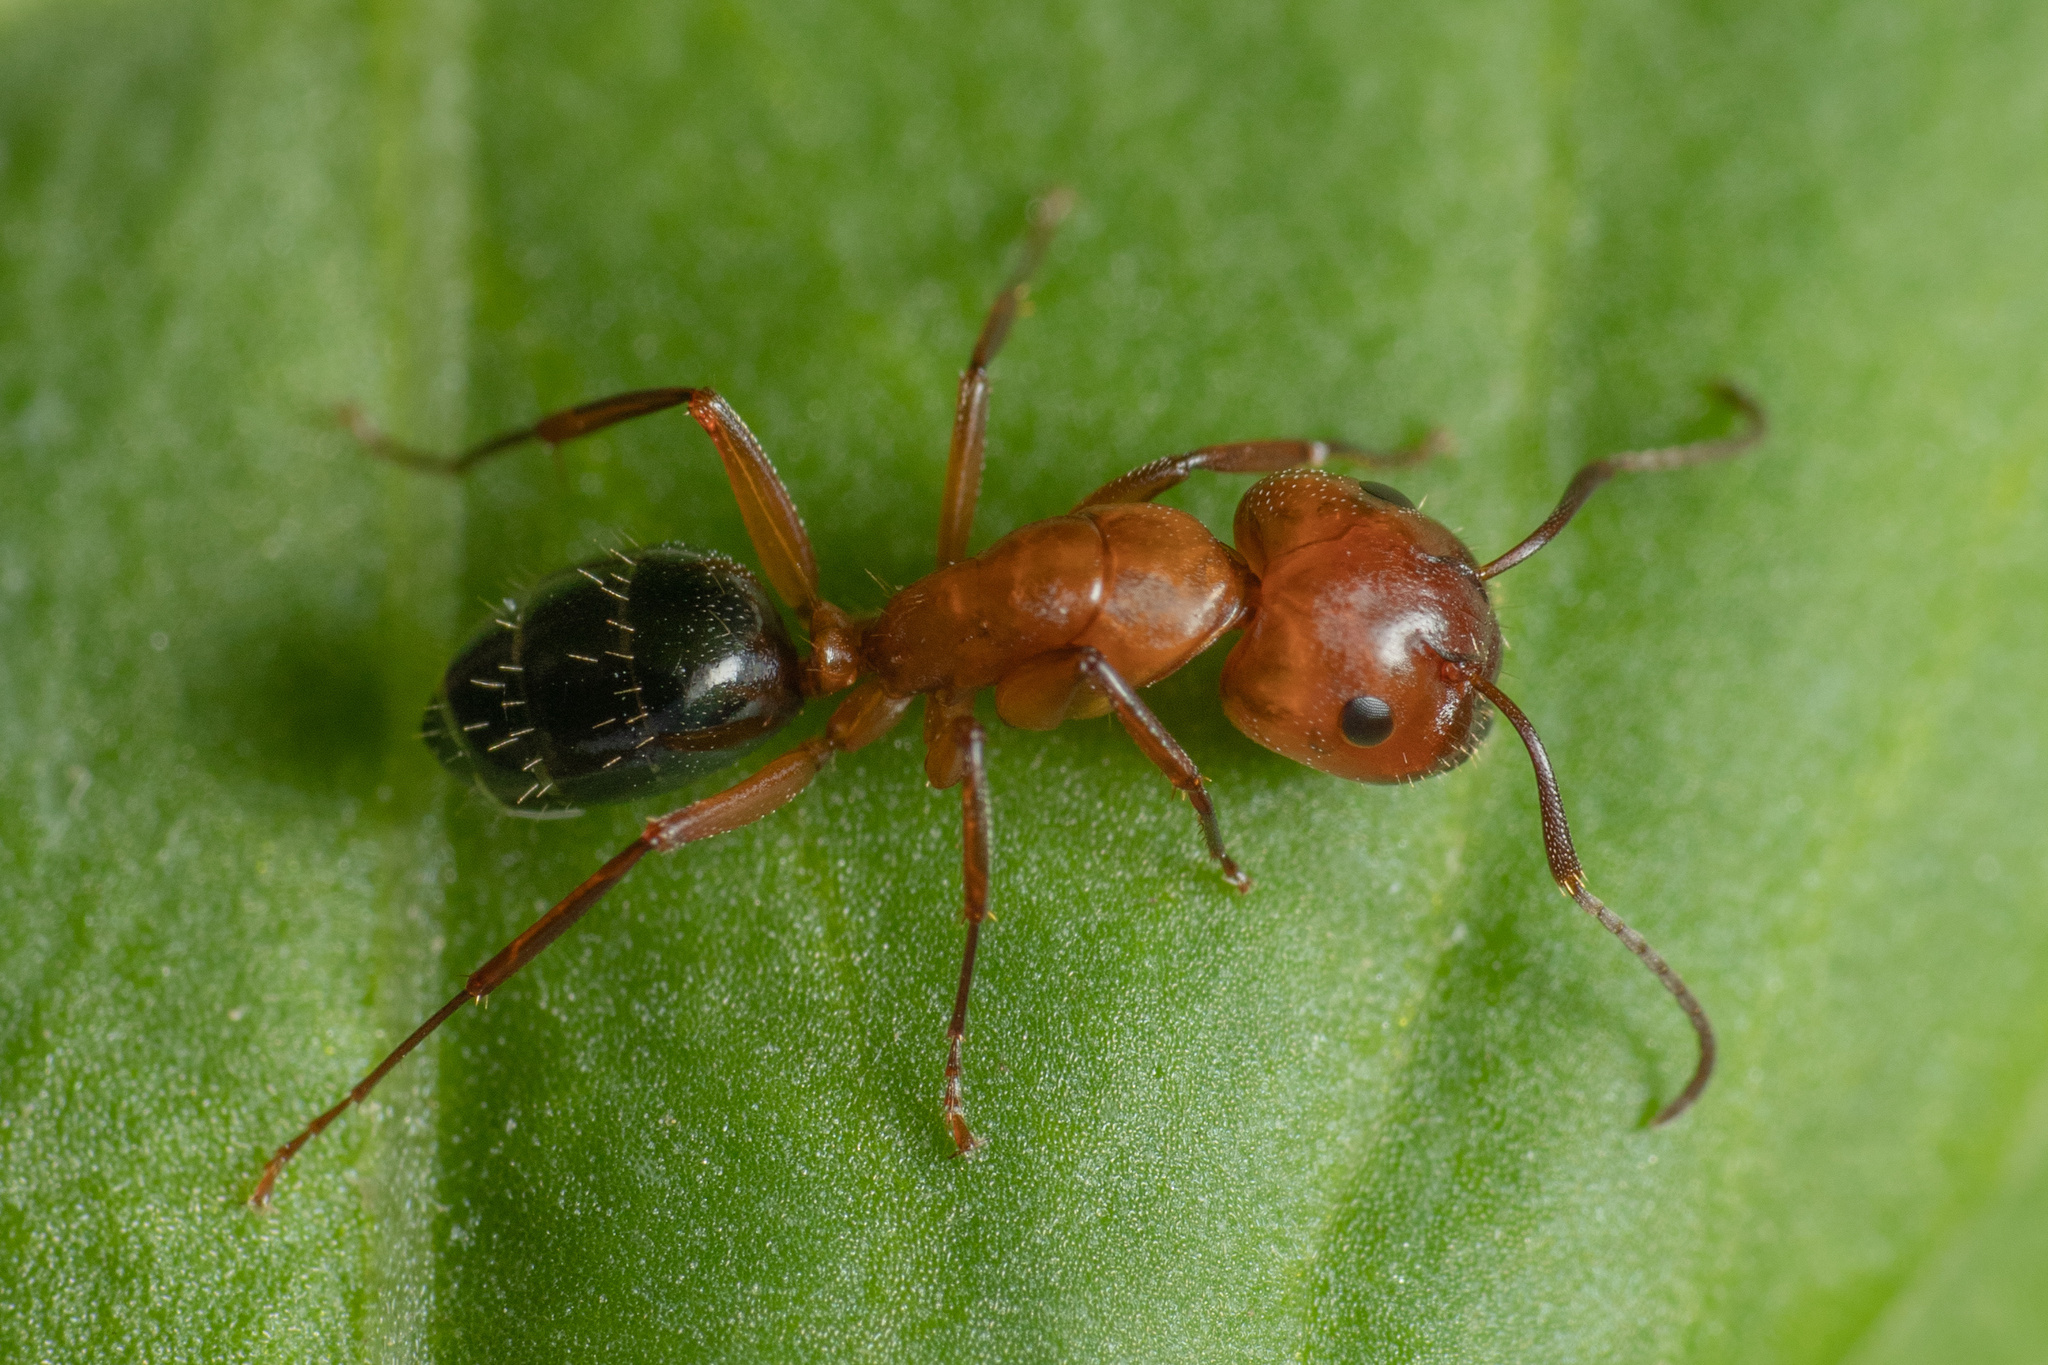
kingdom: Animalia
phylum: Arthropoda
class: Insecta
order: Hymenoptera
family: Formicidae
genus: Camponotus
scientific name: Camponotus discolor
